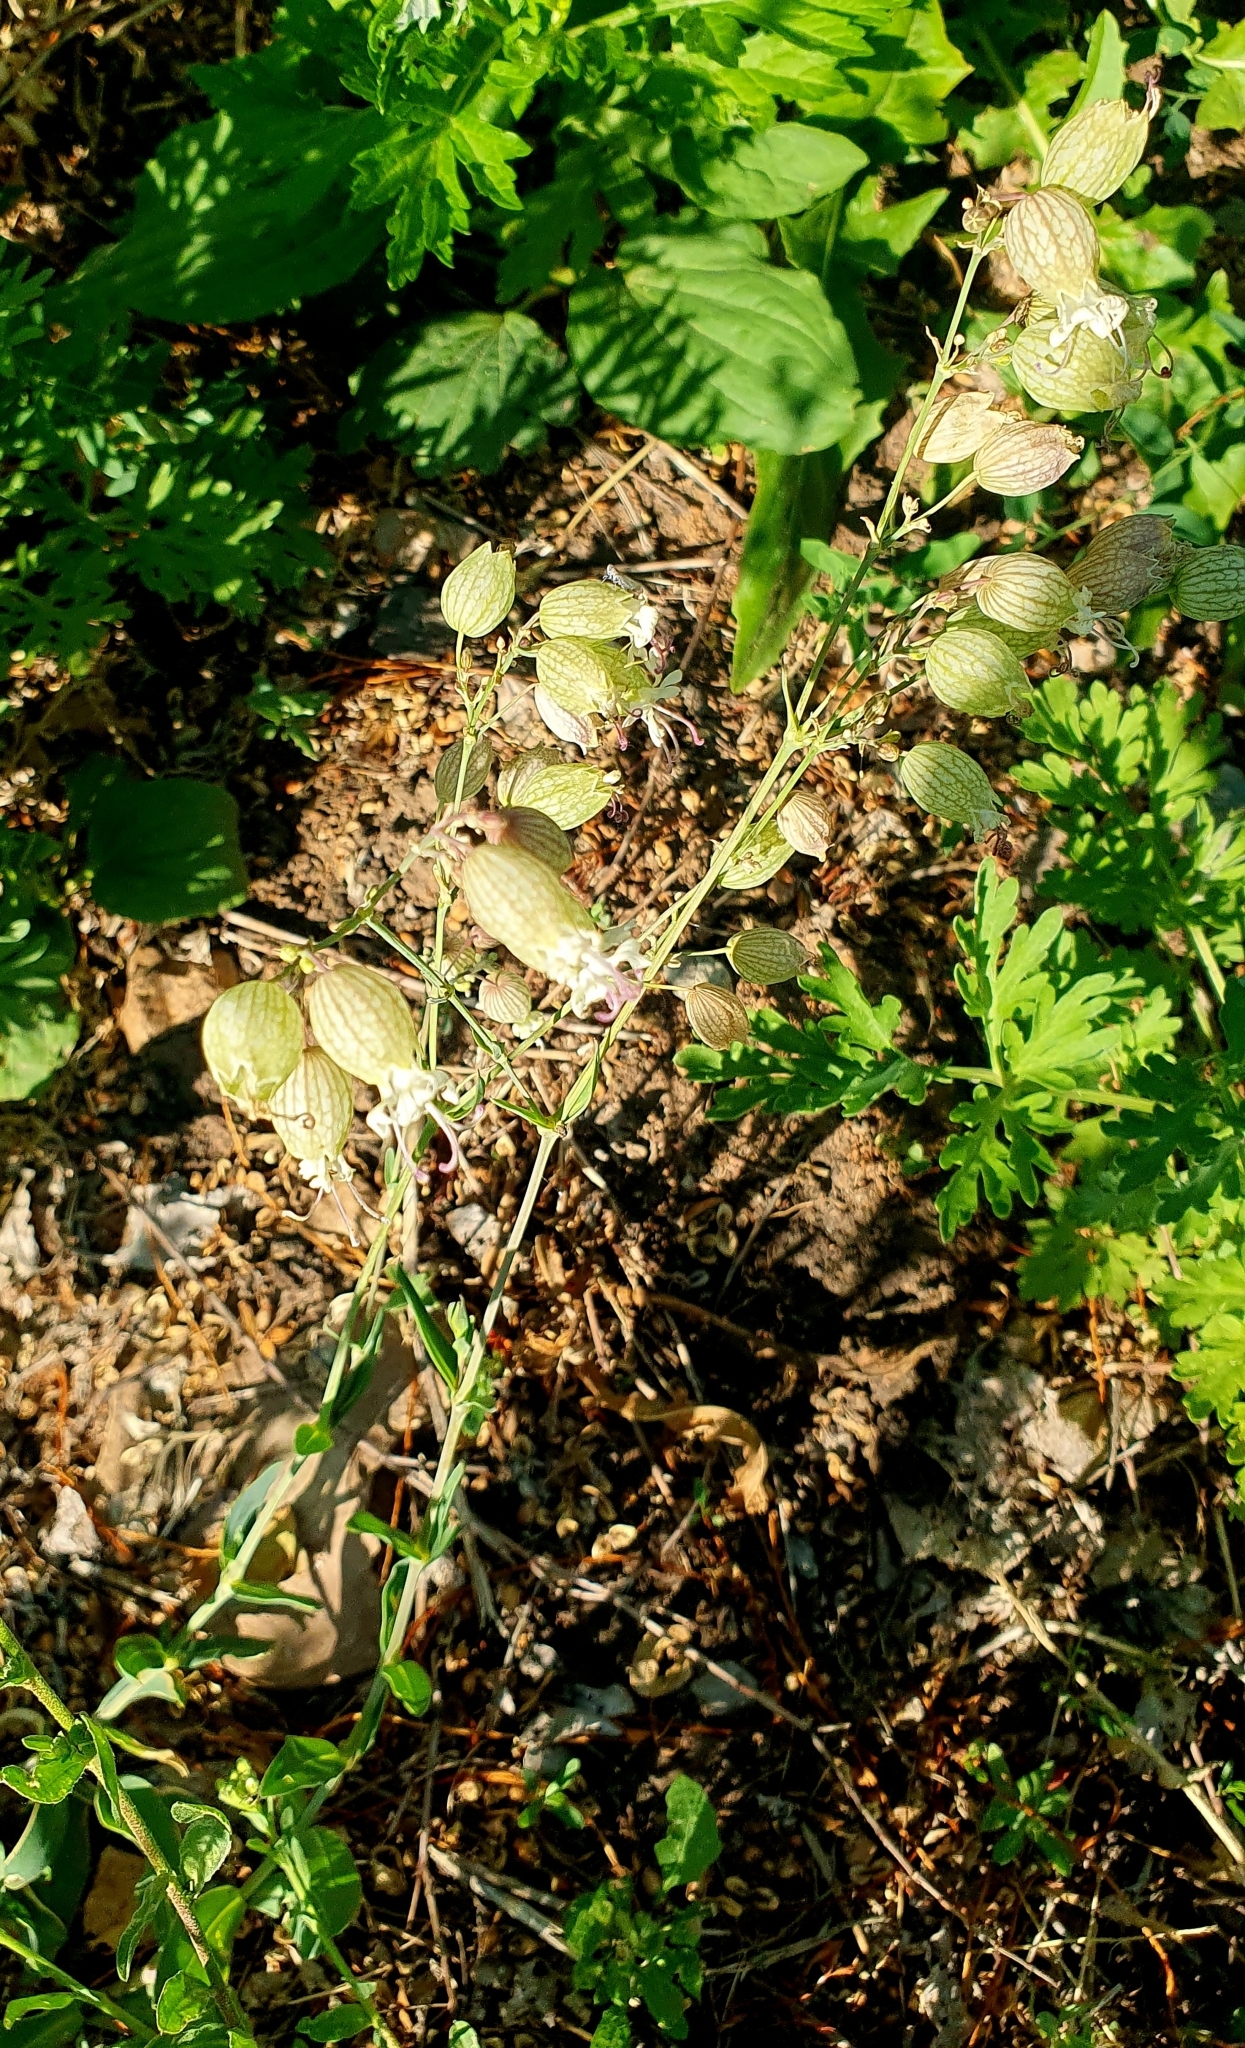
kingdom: Plantae
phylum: Tracheophyta
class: Magnoliopsida
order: Caryophyllales
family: Caryophyllaceae
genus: Silene
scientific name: Silene vulgaris
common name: Bladder campion
